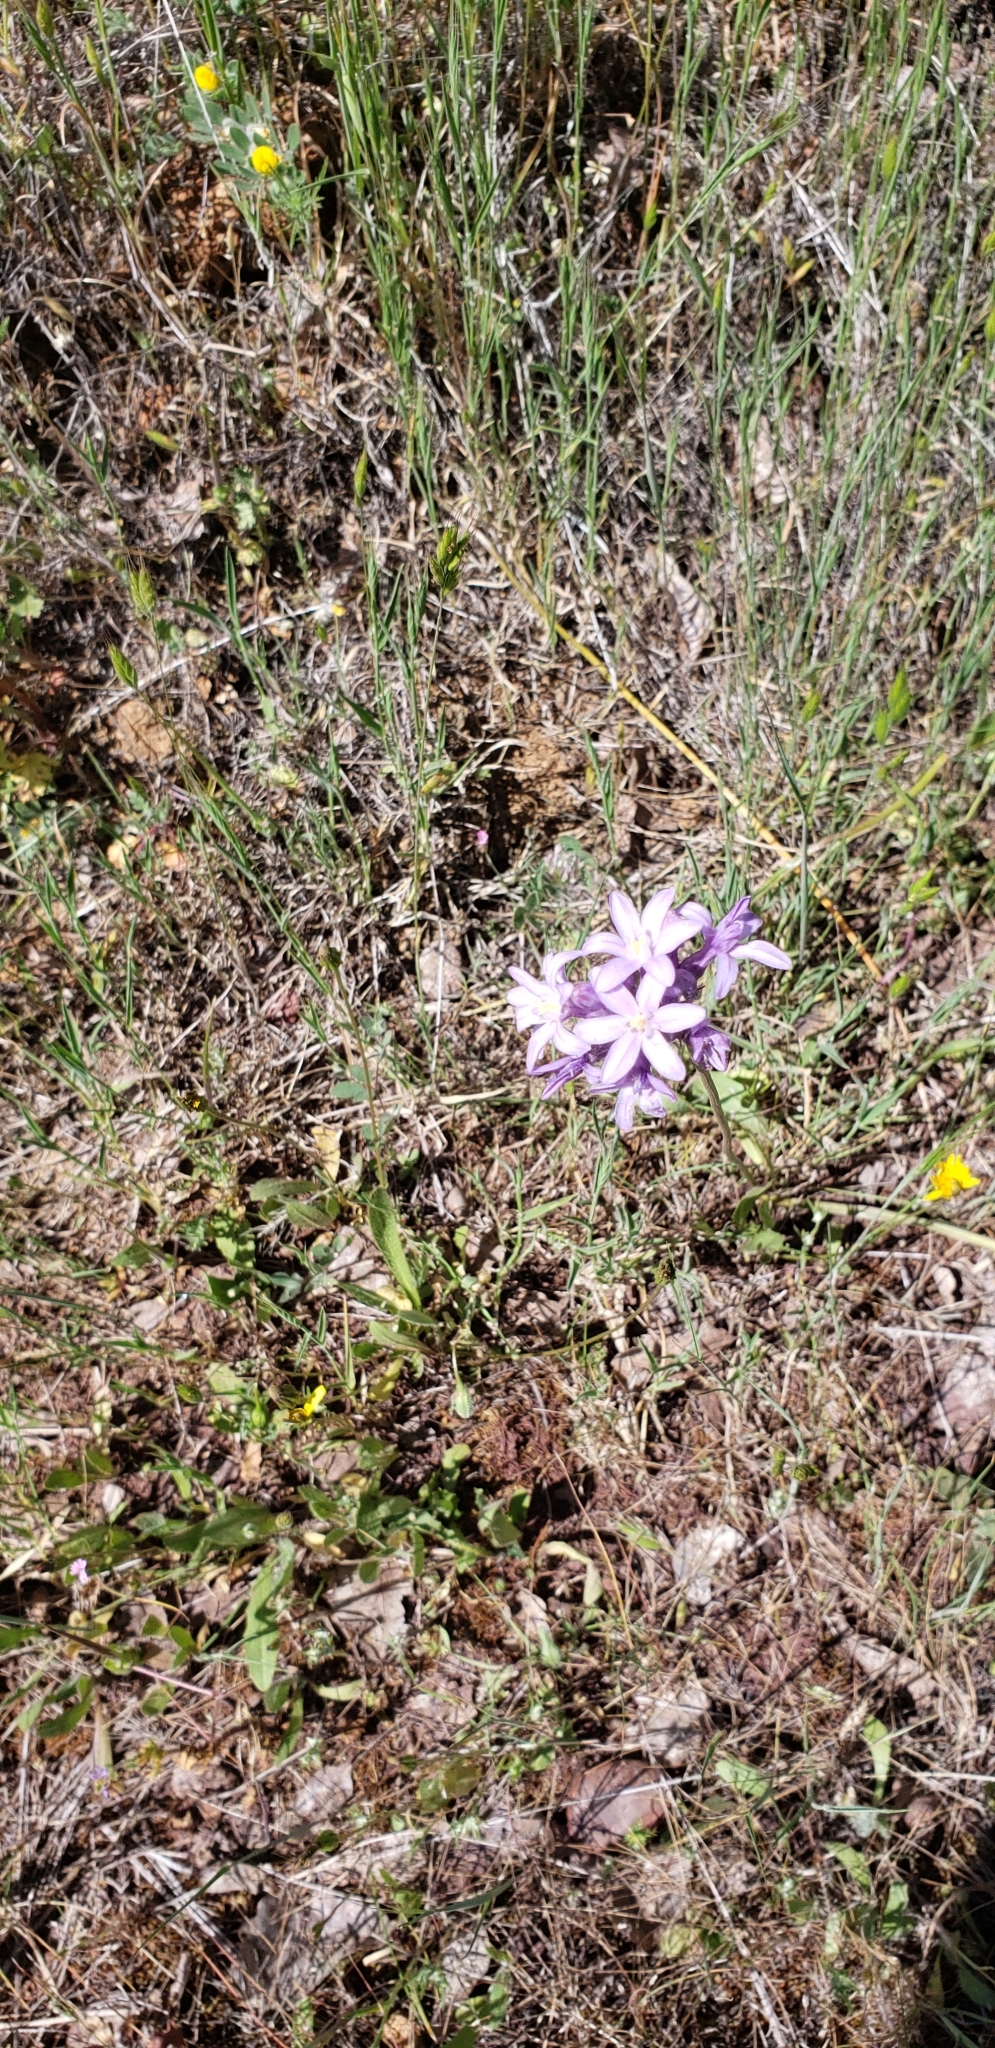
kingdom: Plantae
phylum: Tracheophyta
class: Liliopsida
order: Asparagales
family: Asparagaceae
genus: Dichelostemma
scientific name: Dichelostemma multiflorum
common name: Round-tooth ookow
